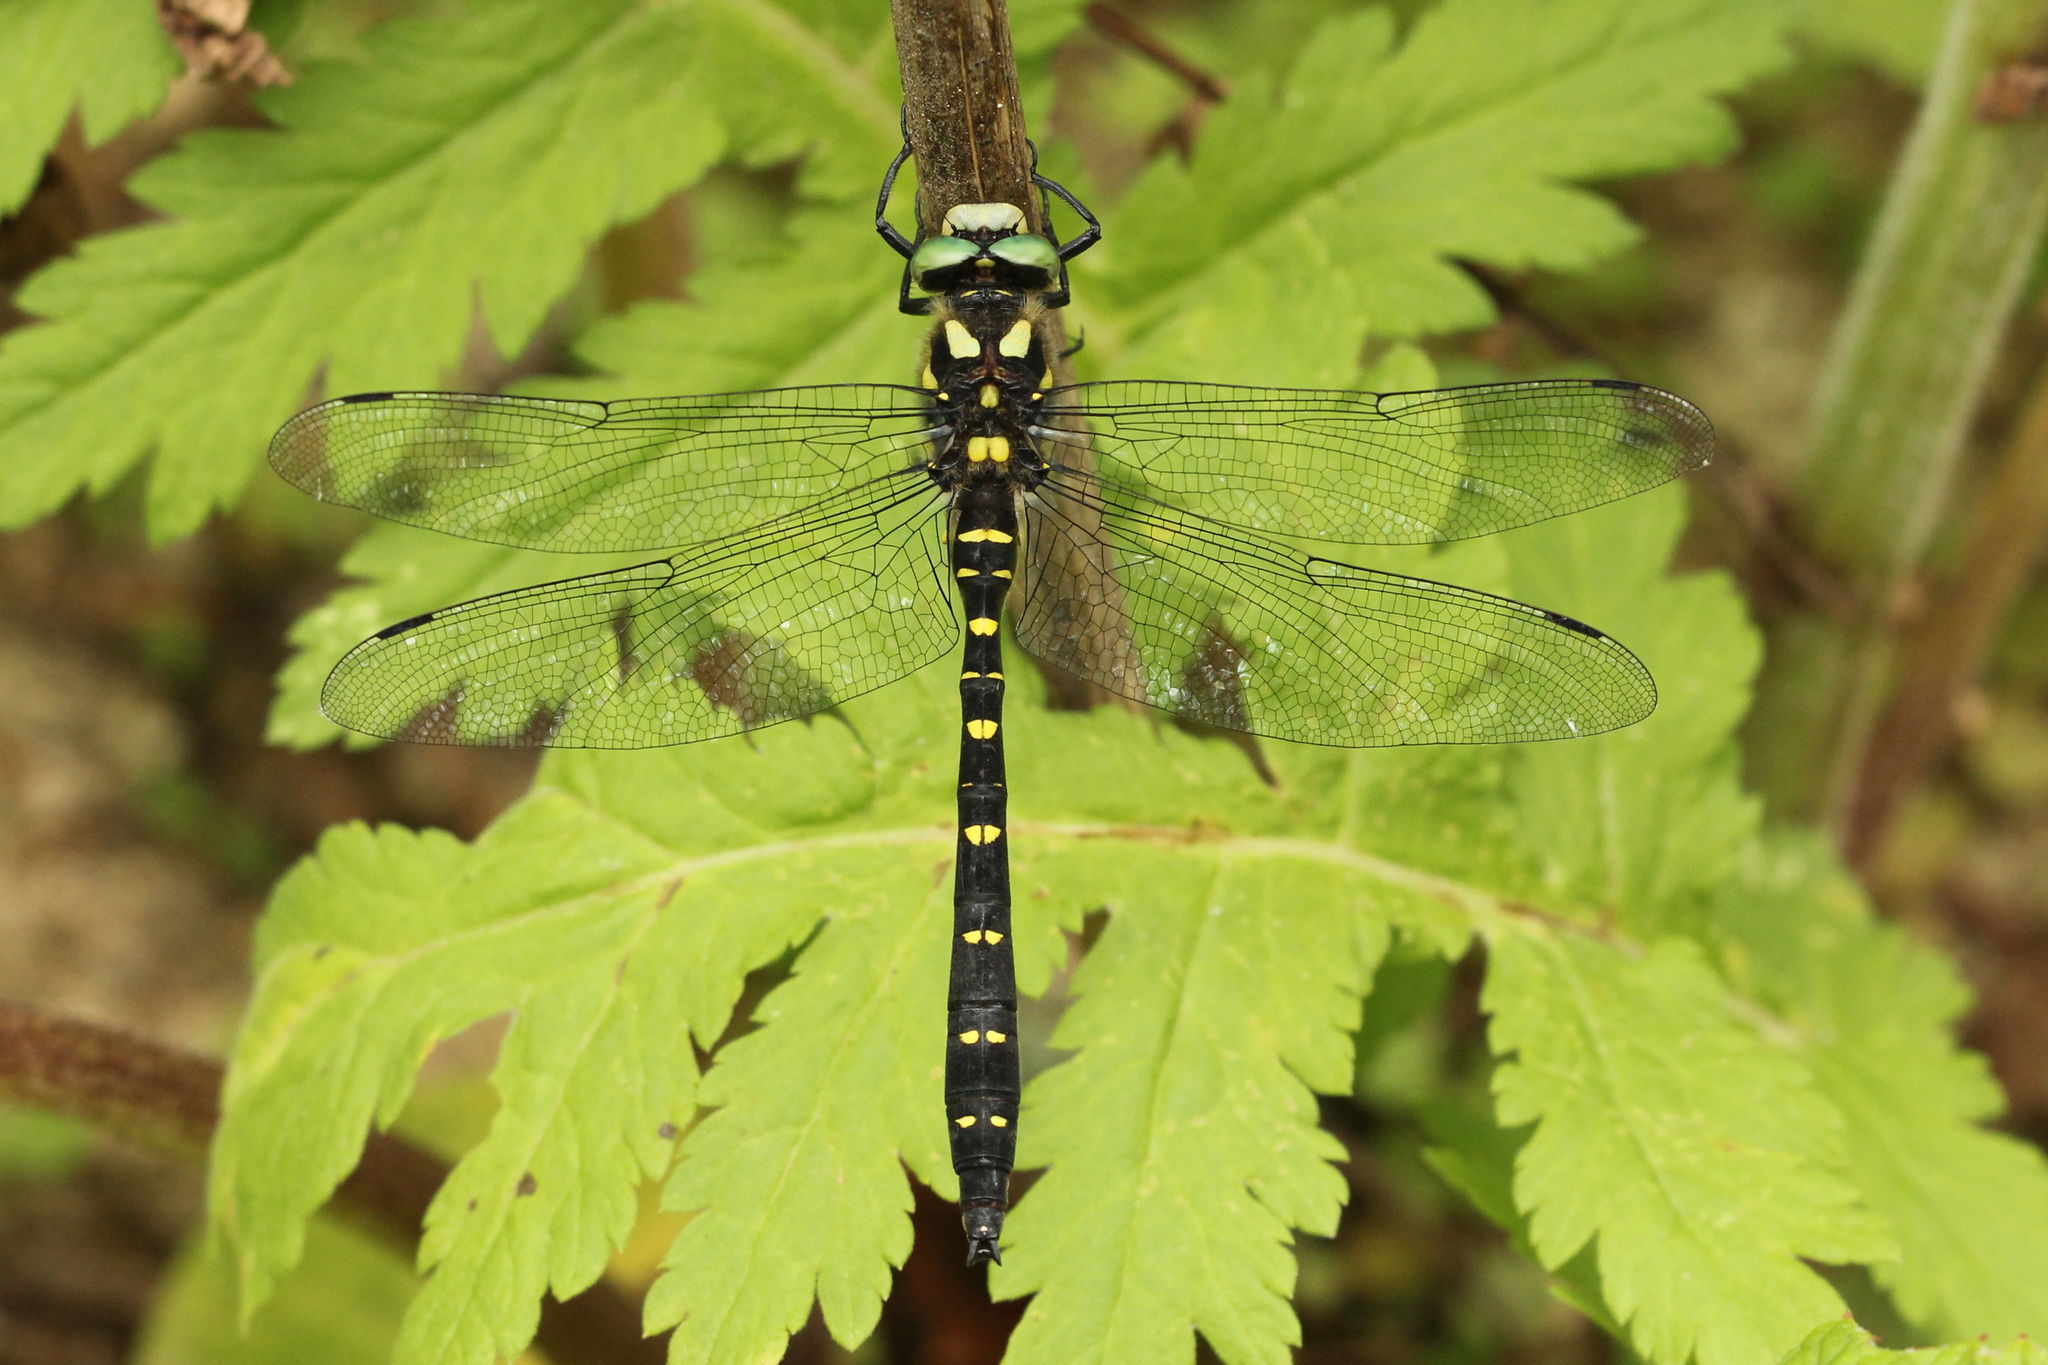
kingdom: Animalia
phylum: Arthropoda
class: Insecta
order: Odonata
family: Cordulegastridae
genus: Cordulegaster
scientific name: Cordulegaster mzymtae
